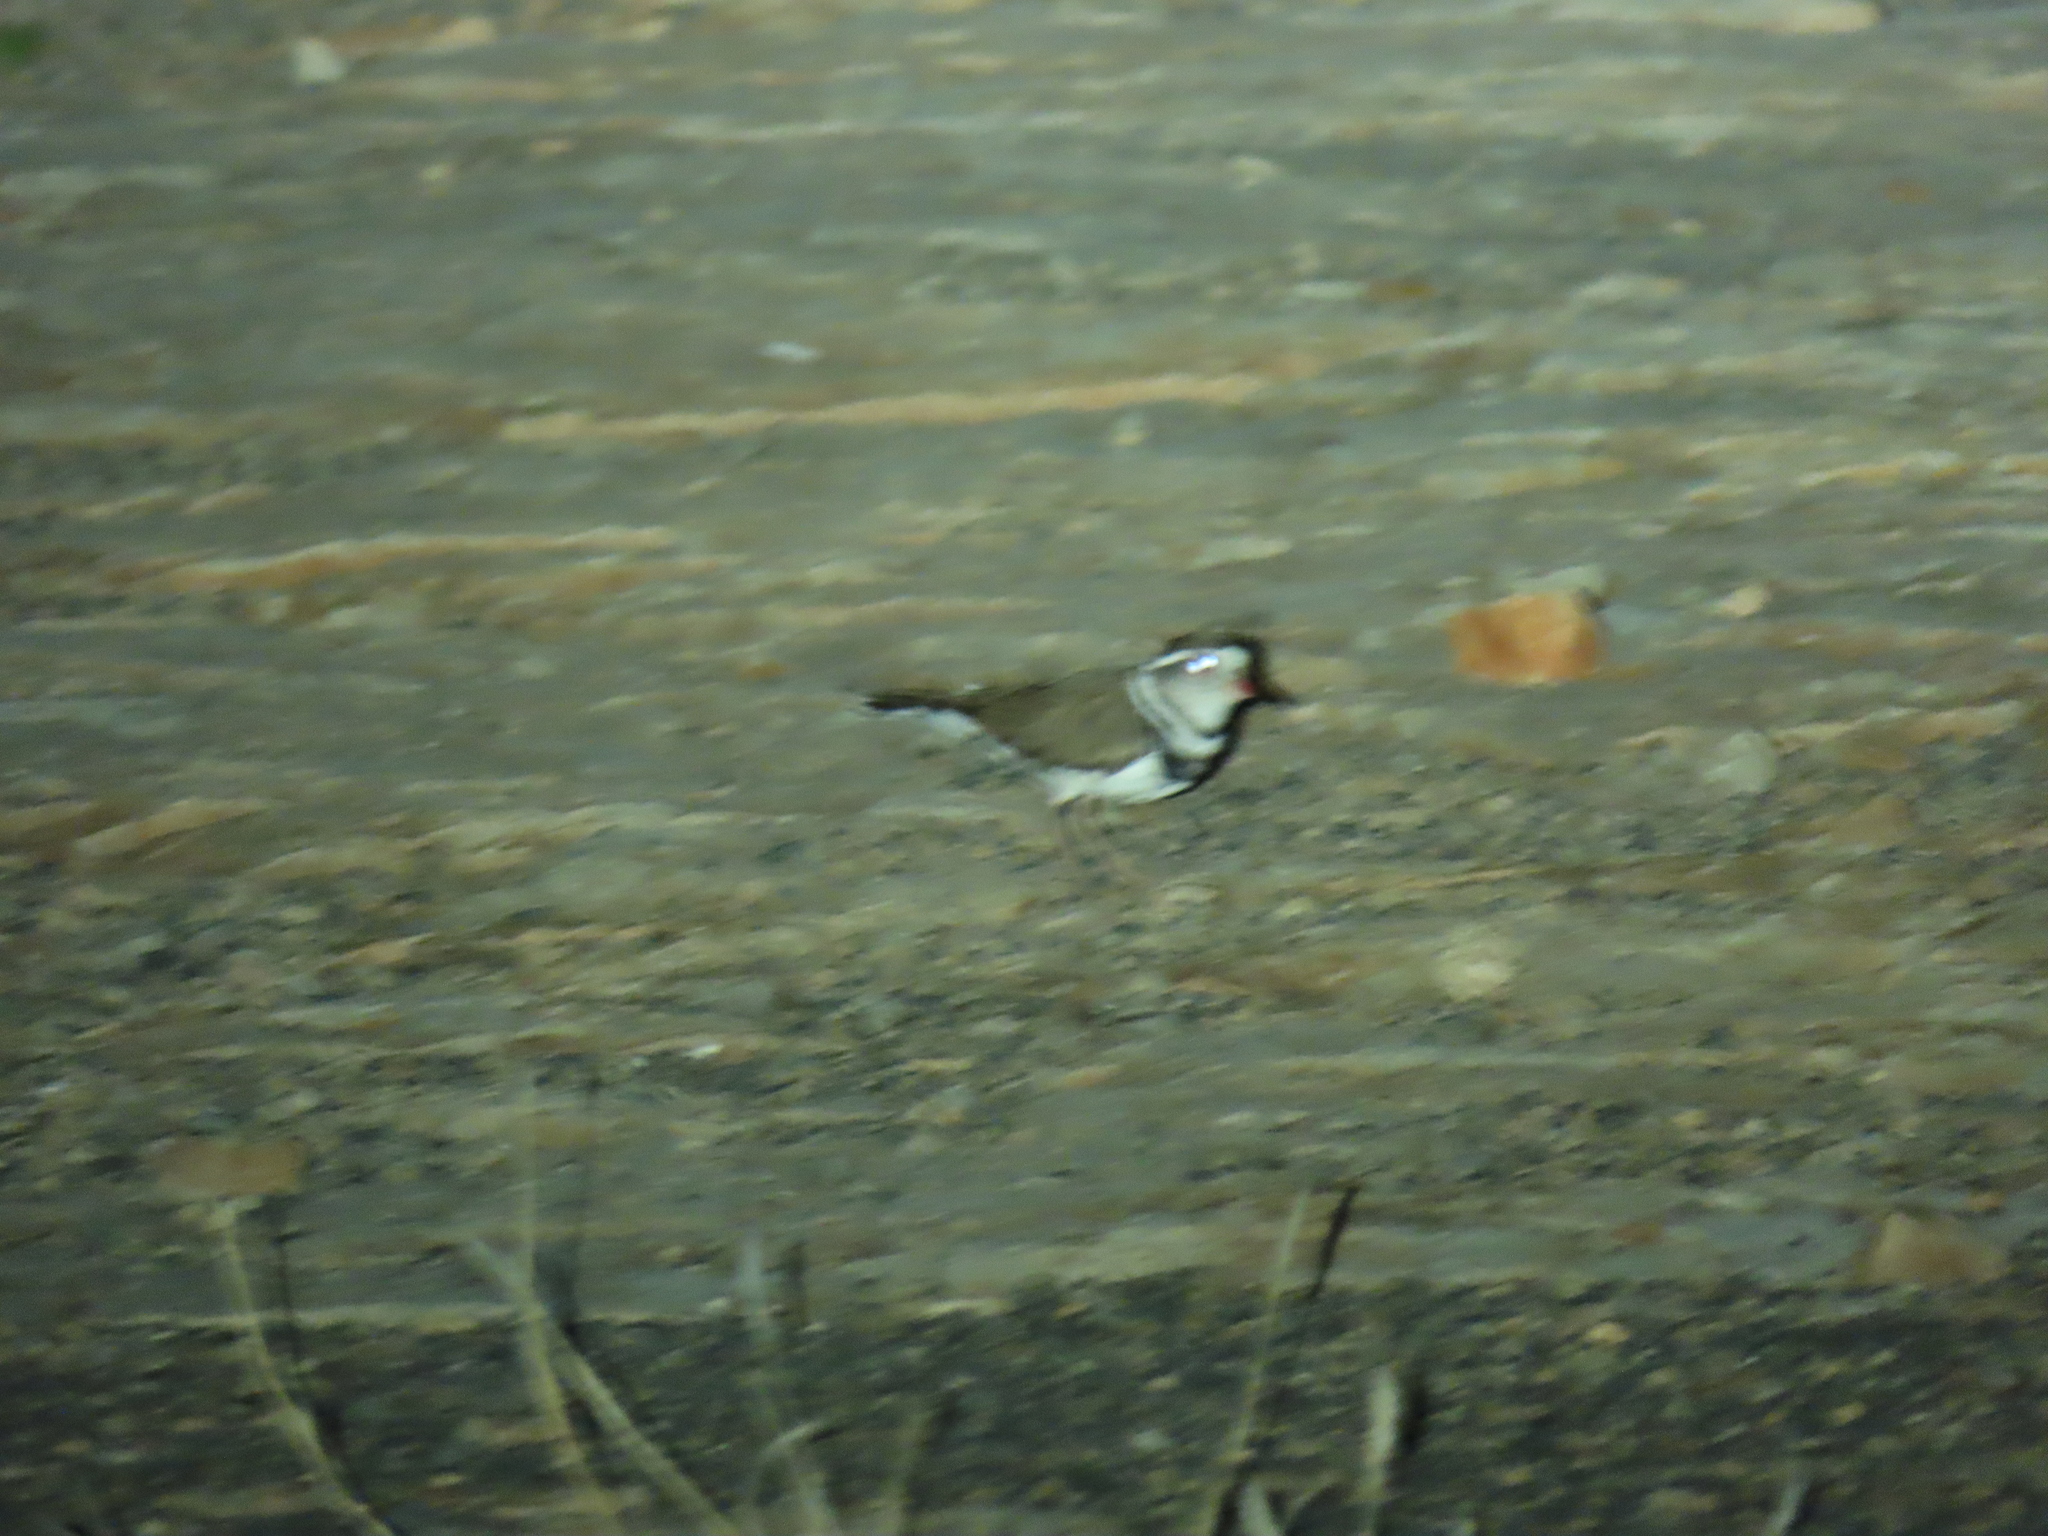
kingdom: Animalia
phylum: Chordata
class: Aves
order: Charadriiformes
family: Charadriidae
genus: Charadrius
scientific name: Charadrius tricollaris
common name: Three-banded plover
